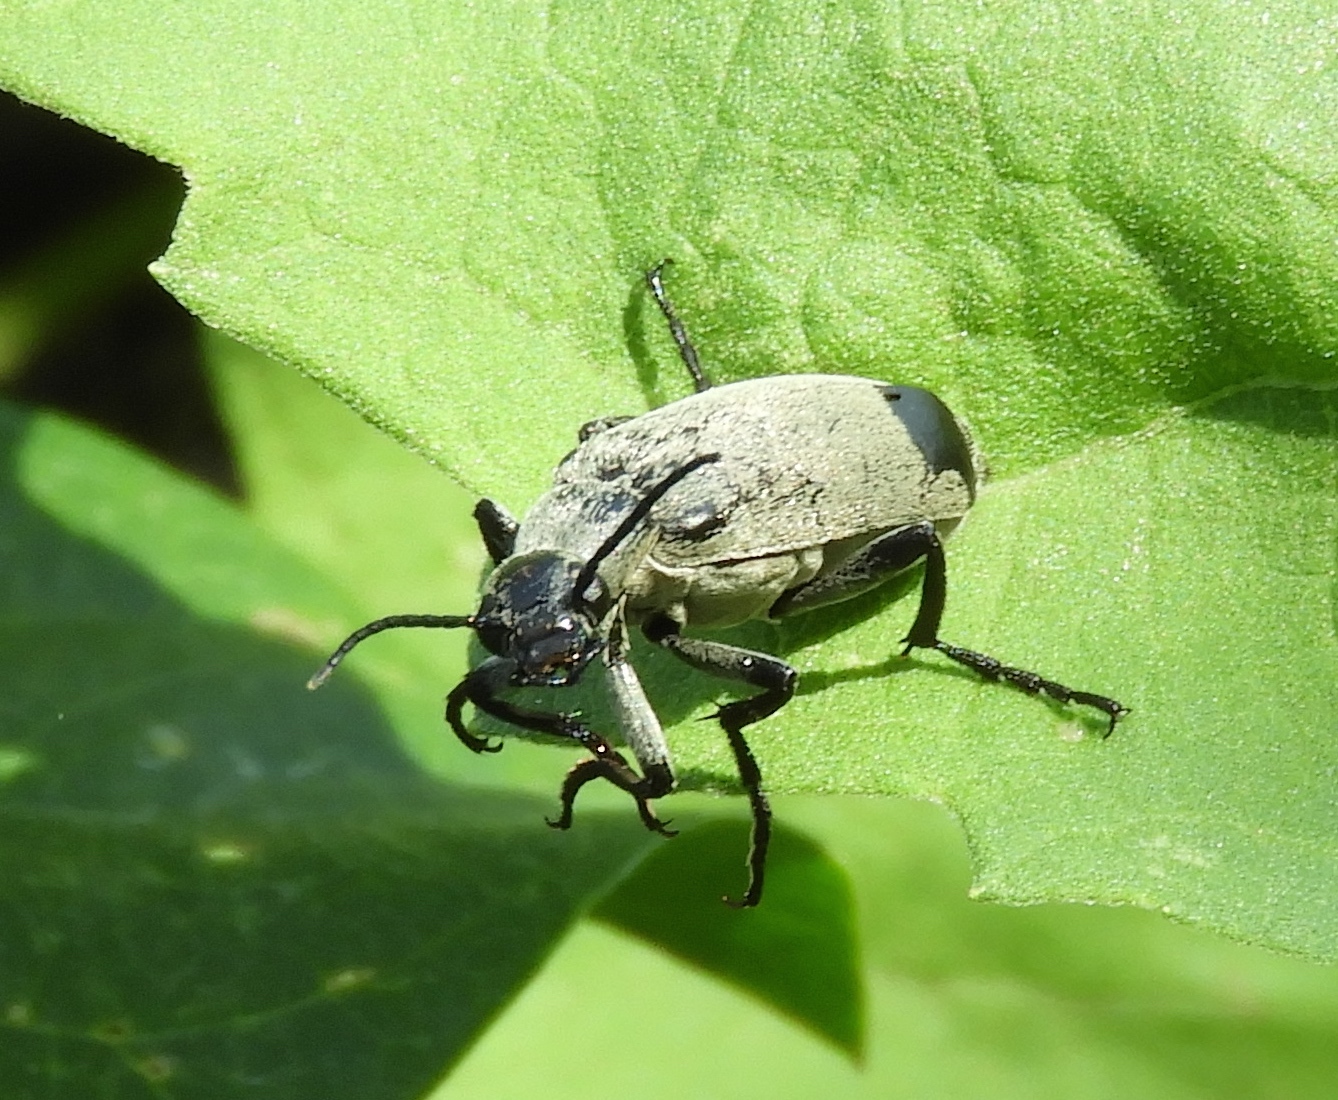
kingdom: Animalia
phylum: Arthropoda
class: Insecta
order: Coleoptera
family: Meloidae
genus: Epicauta
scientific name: Epicauta bipunctata
